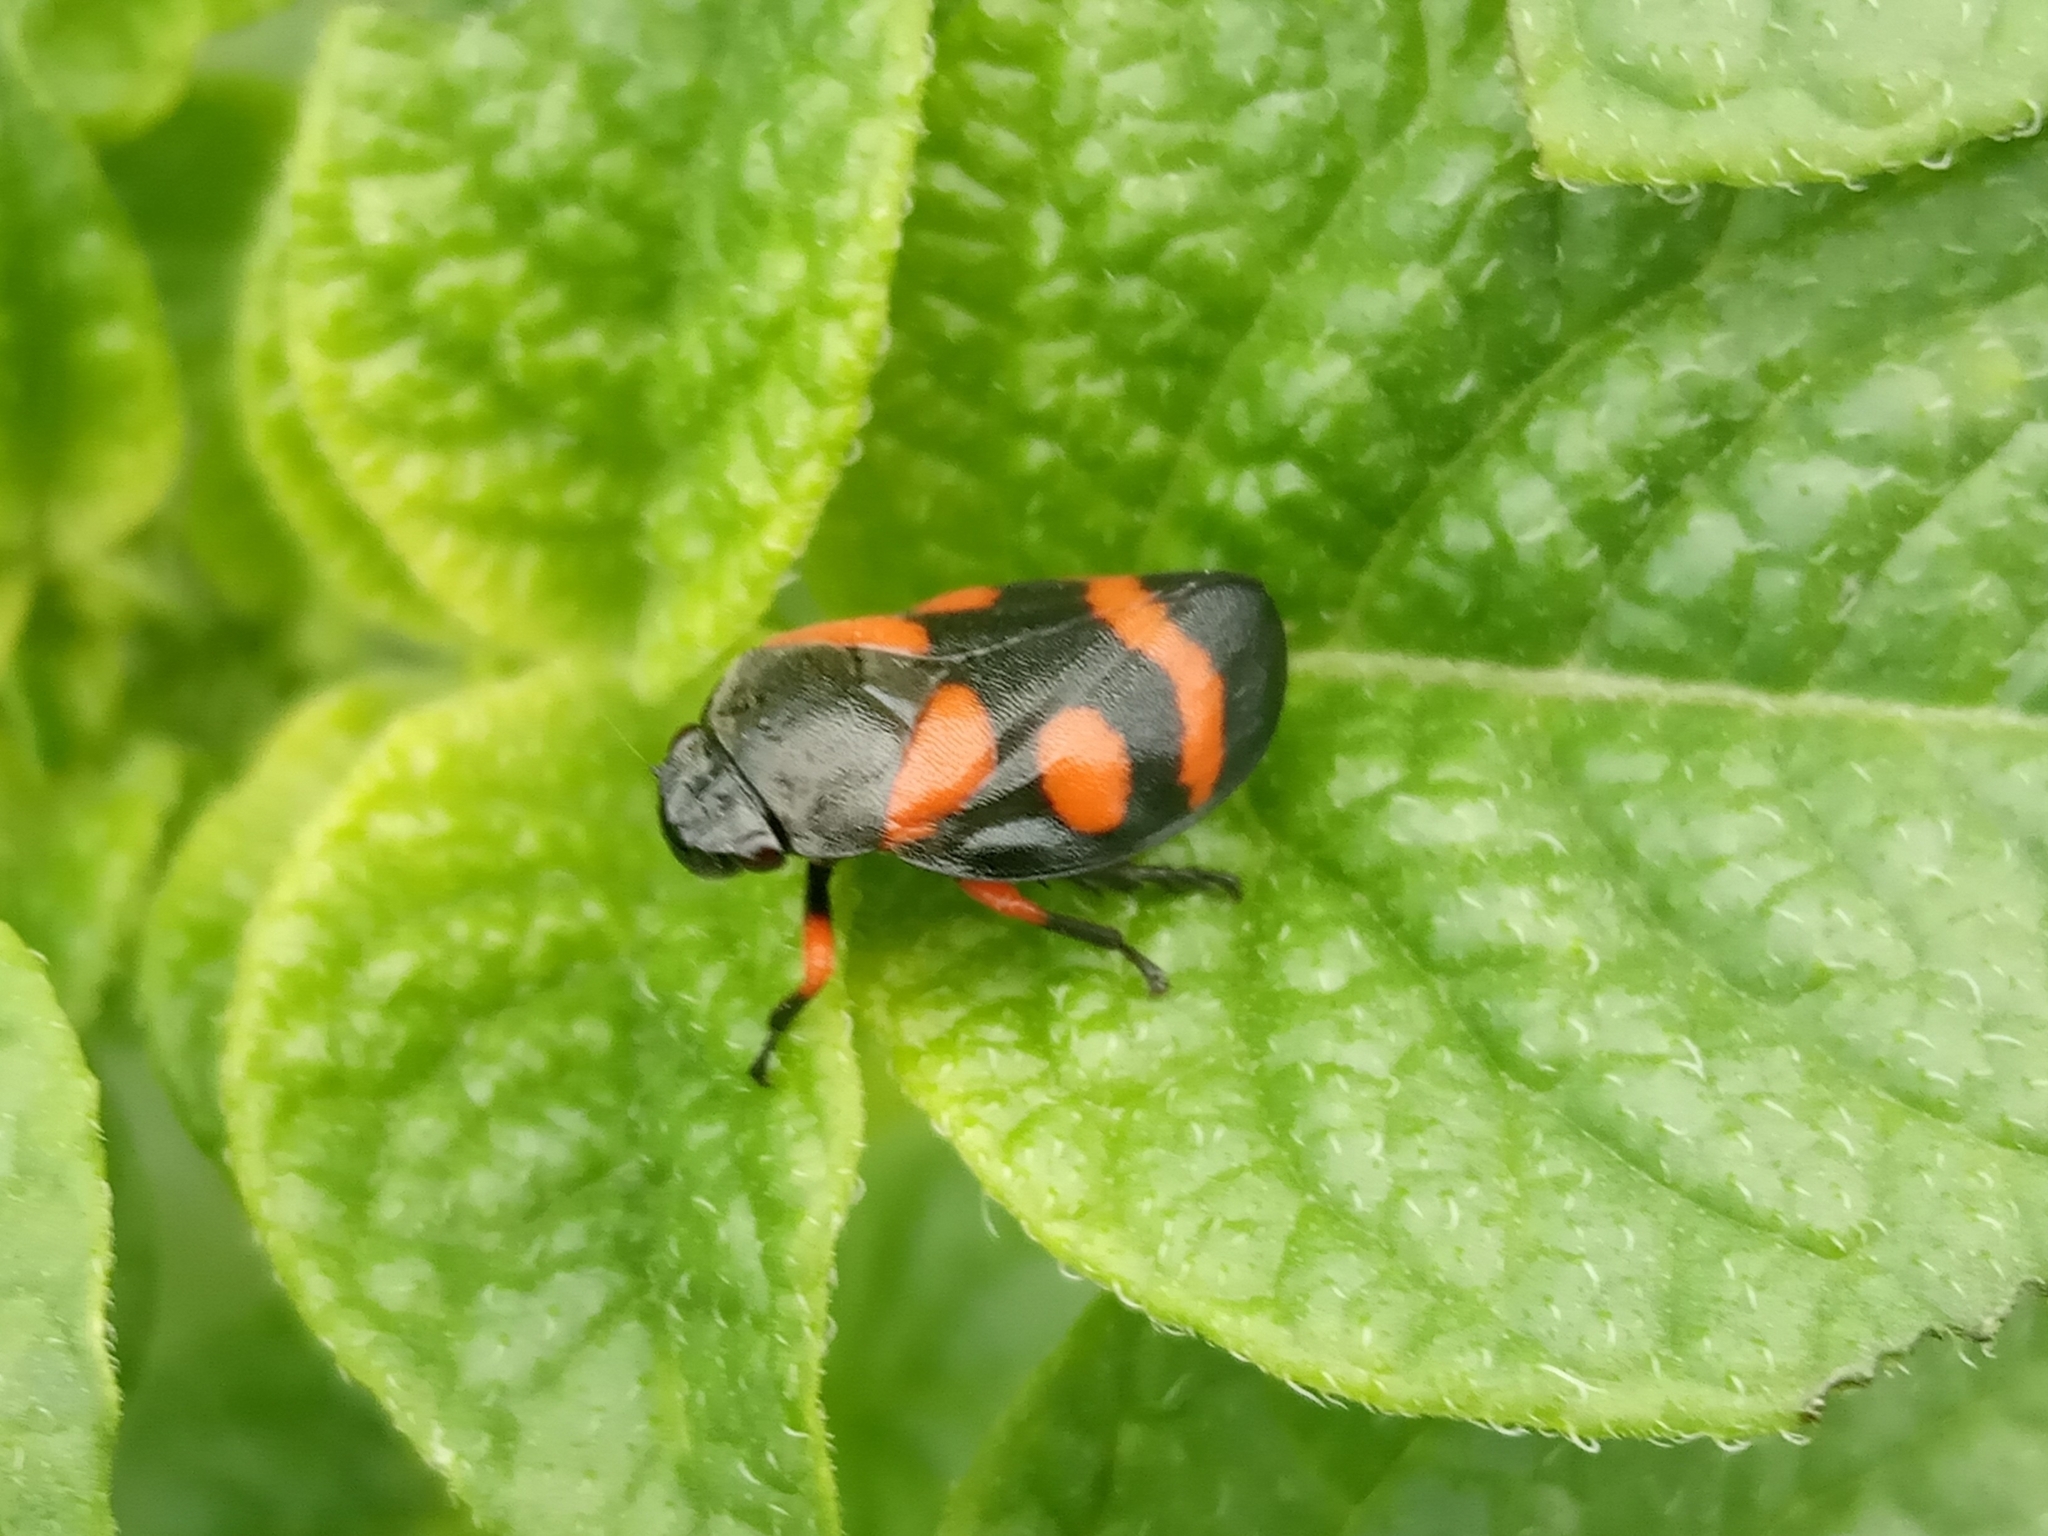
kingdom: Animalia
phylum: Arthropoda
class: Insecta
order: Hemiptera
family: Cercopidae
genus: Cercopis
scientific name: Cercopis intermedia
